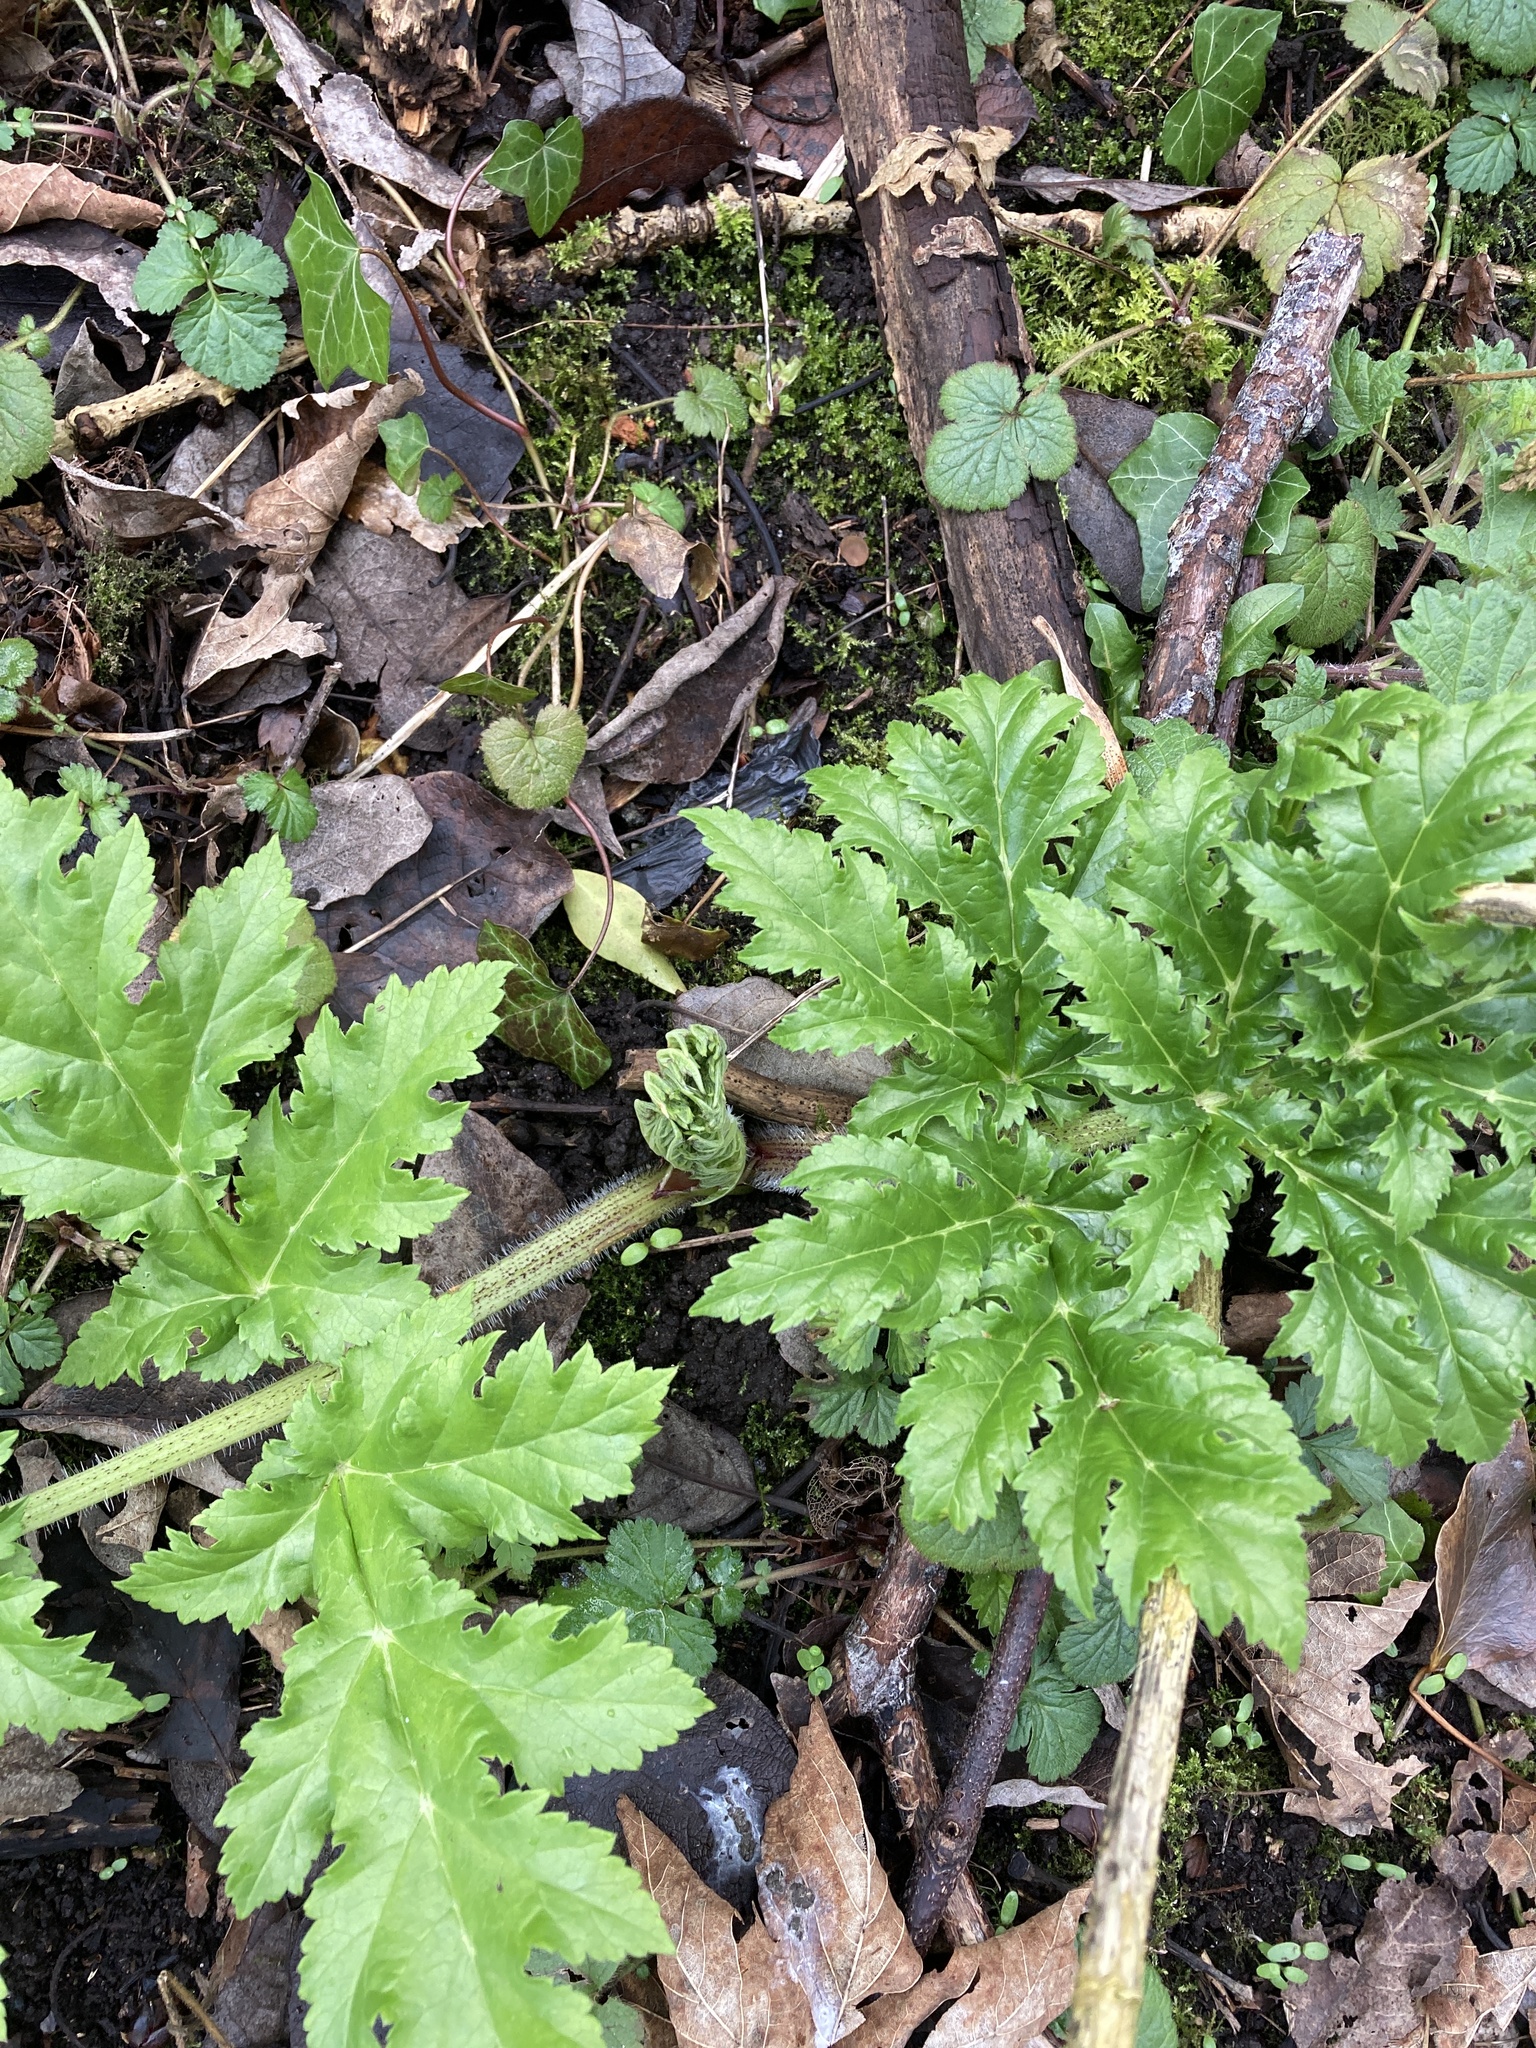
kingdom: Plantae
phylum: Tracheophyta
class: Magnoliopsida
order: Apiales
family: Apiaceae
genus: Heracleum
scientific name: Heracleum mantegazzianum
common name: Giant hogweed
